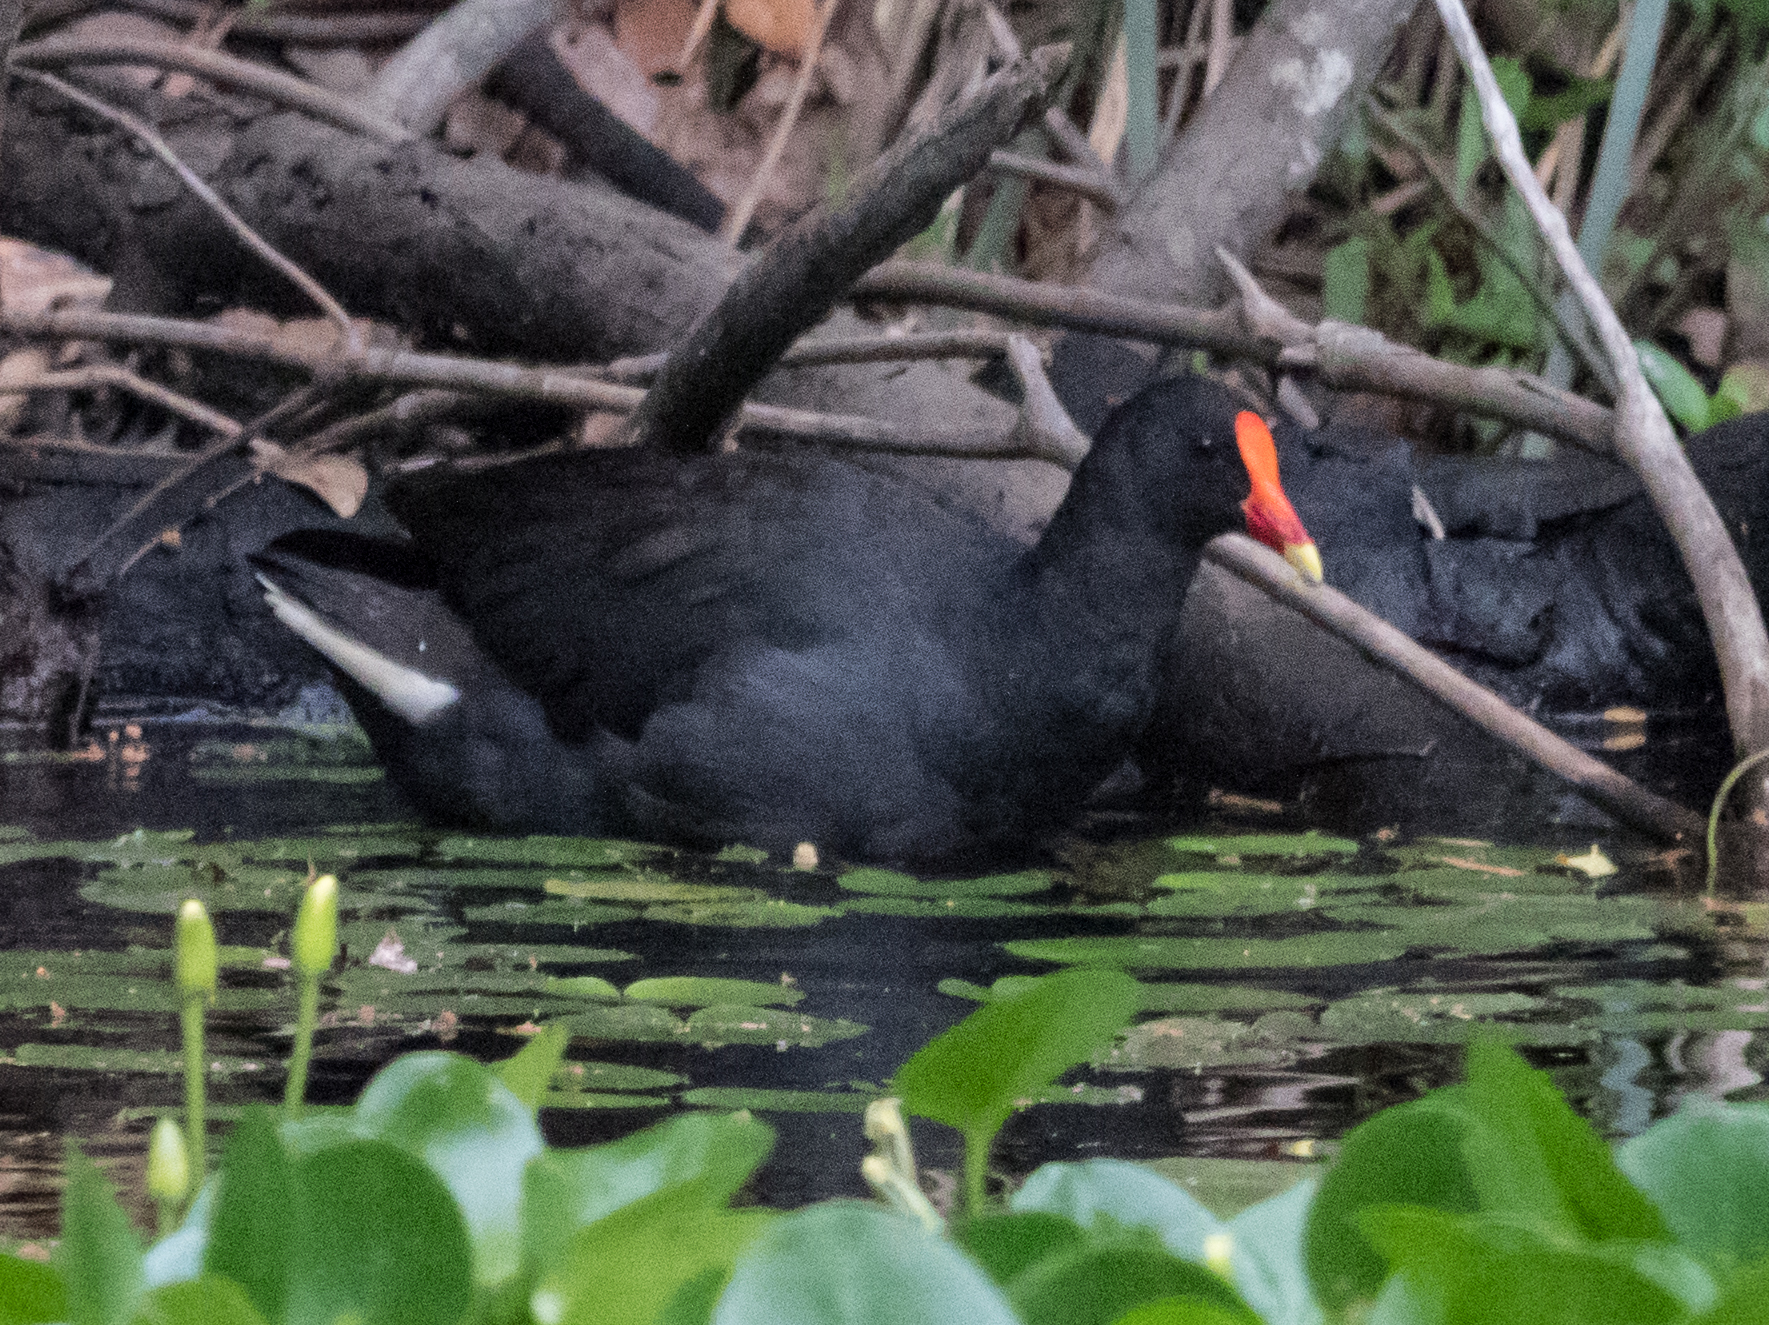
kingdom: Animalia
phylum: Chordata
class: Aves
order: Gruiformes
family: Rallidae
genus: Gallinula
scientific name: Gallinula tenebrosa
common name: Dusky moorhen
